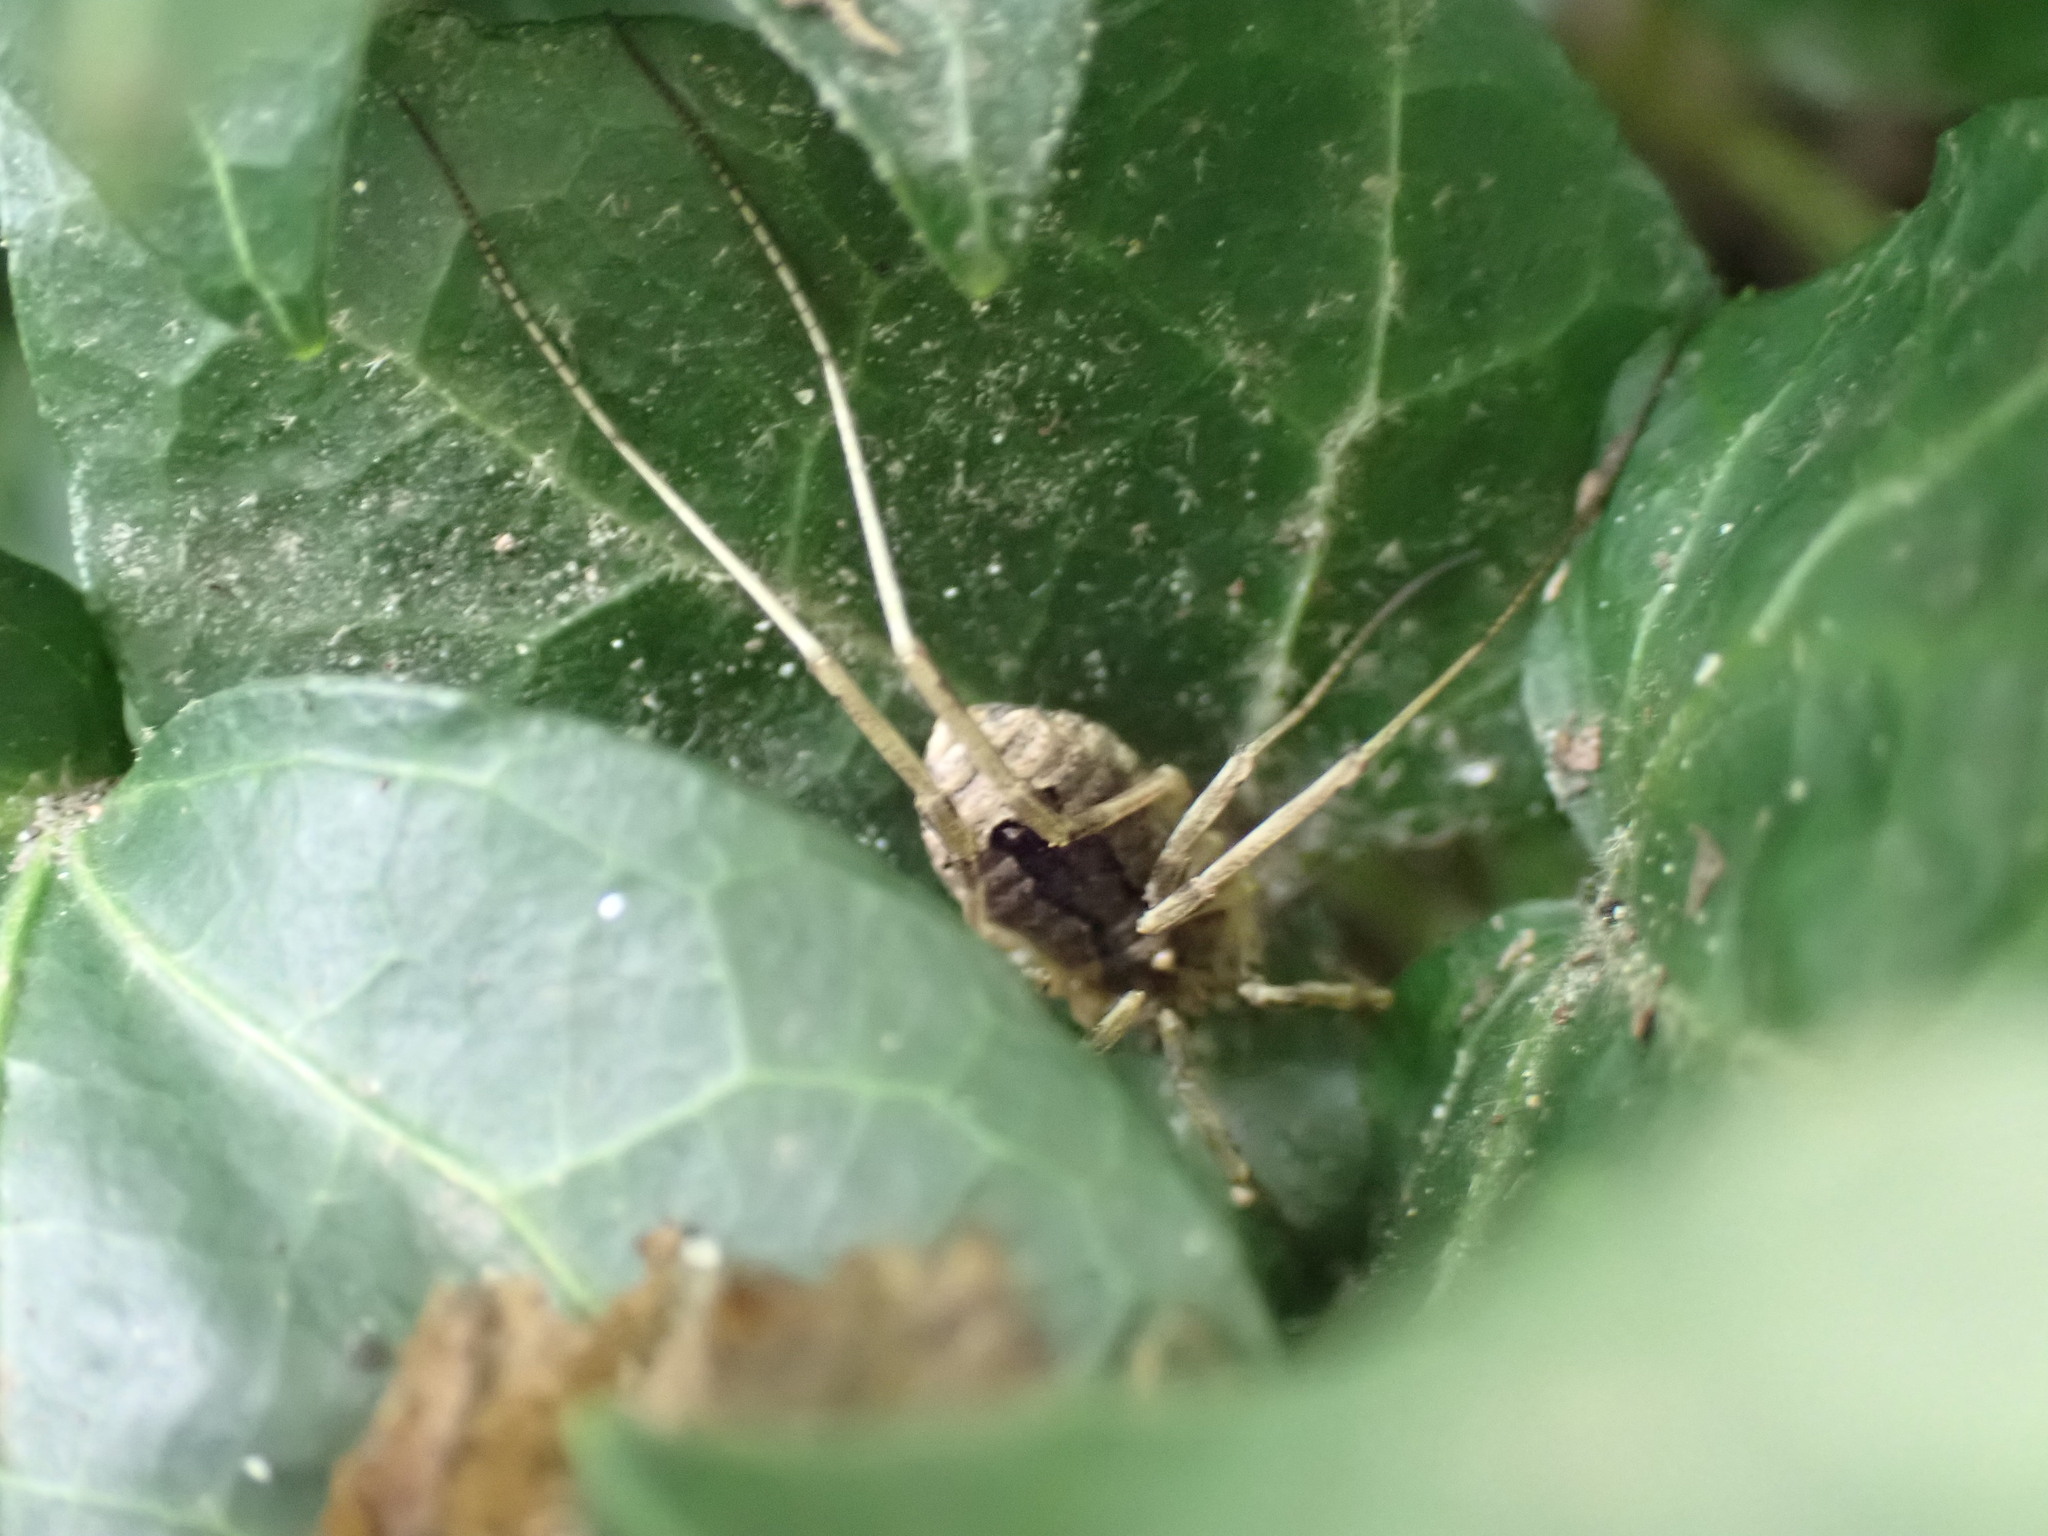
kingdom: Animalia
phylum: Arthropoda
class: Arachnida
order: Opiliones
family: Phalangiidae
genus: Odiellus
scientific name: Odiellus spinosus
